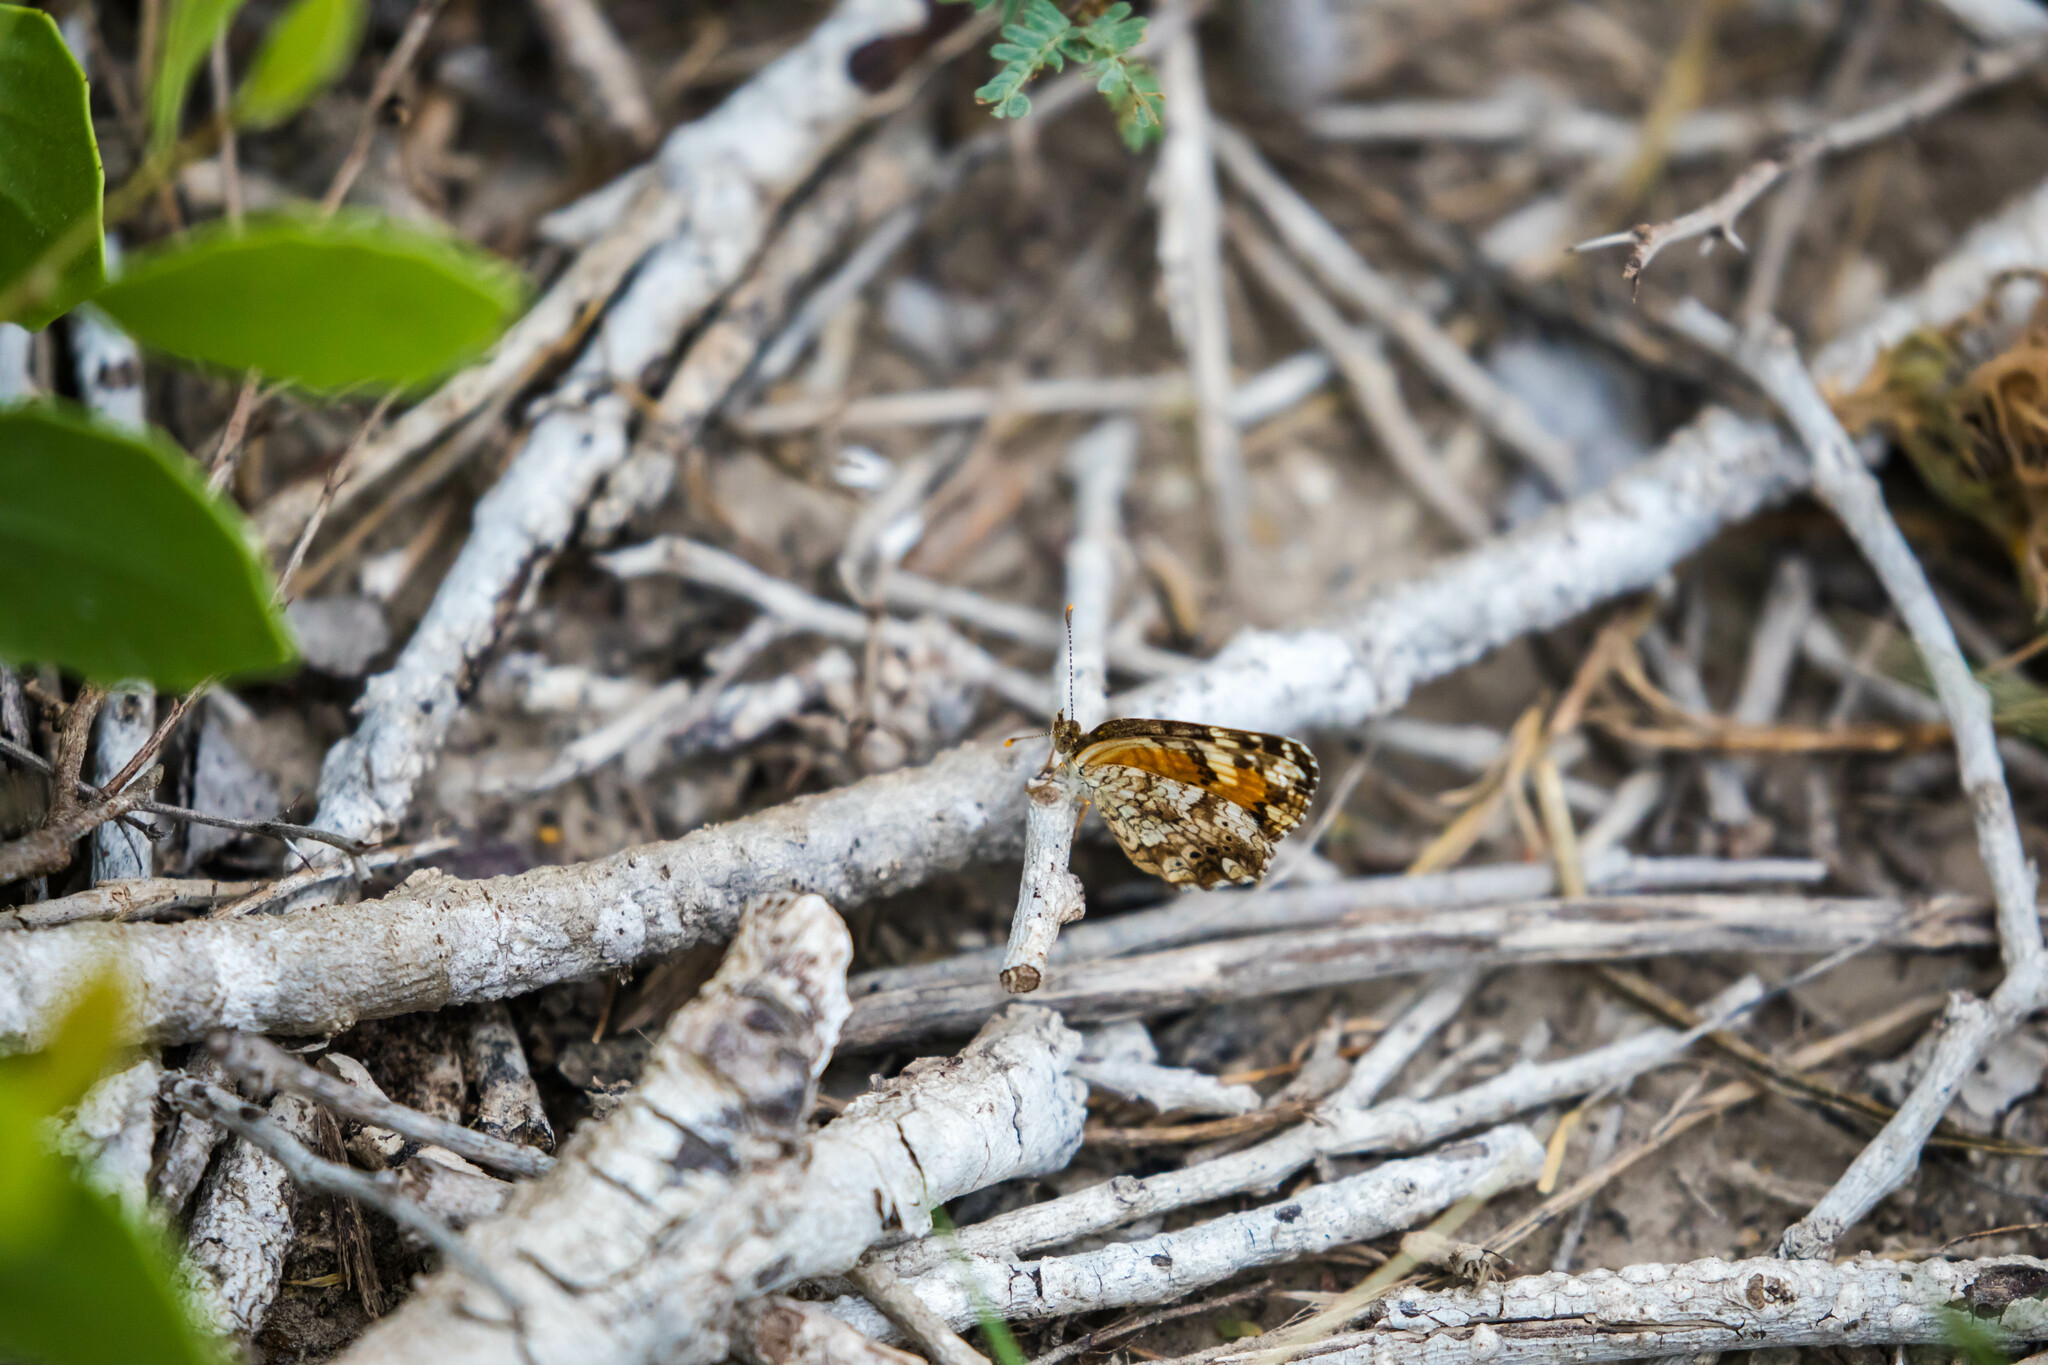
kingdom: Animalia
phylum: Arthropoda
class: Insecta
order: Lepidoptera
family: Nymphalidae
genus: Phyciodes
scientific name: Phyciodes phaon
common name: Phaon crescent
